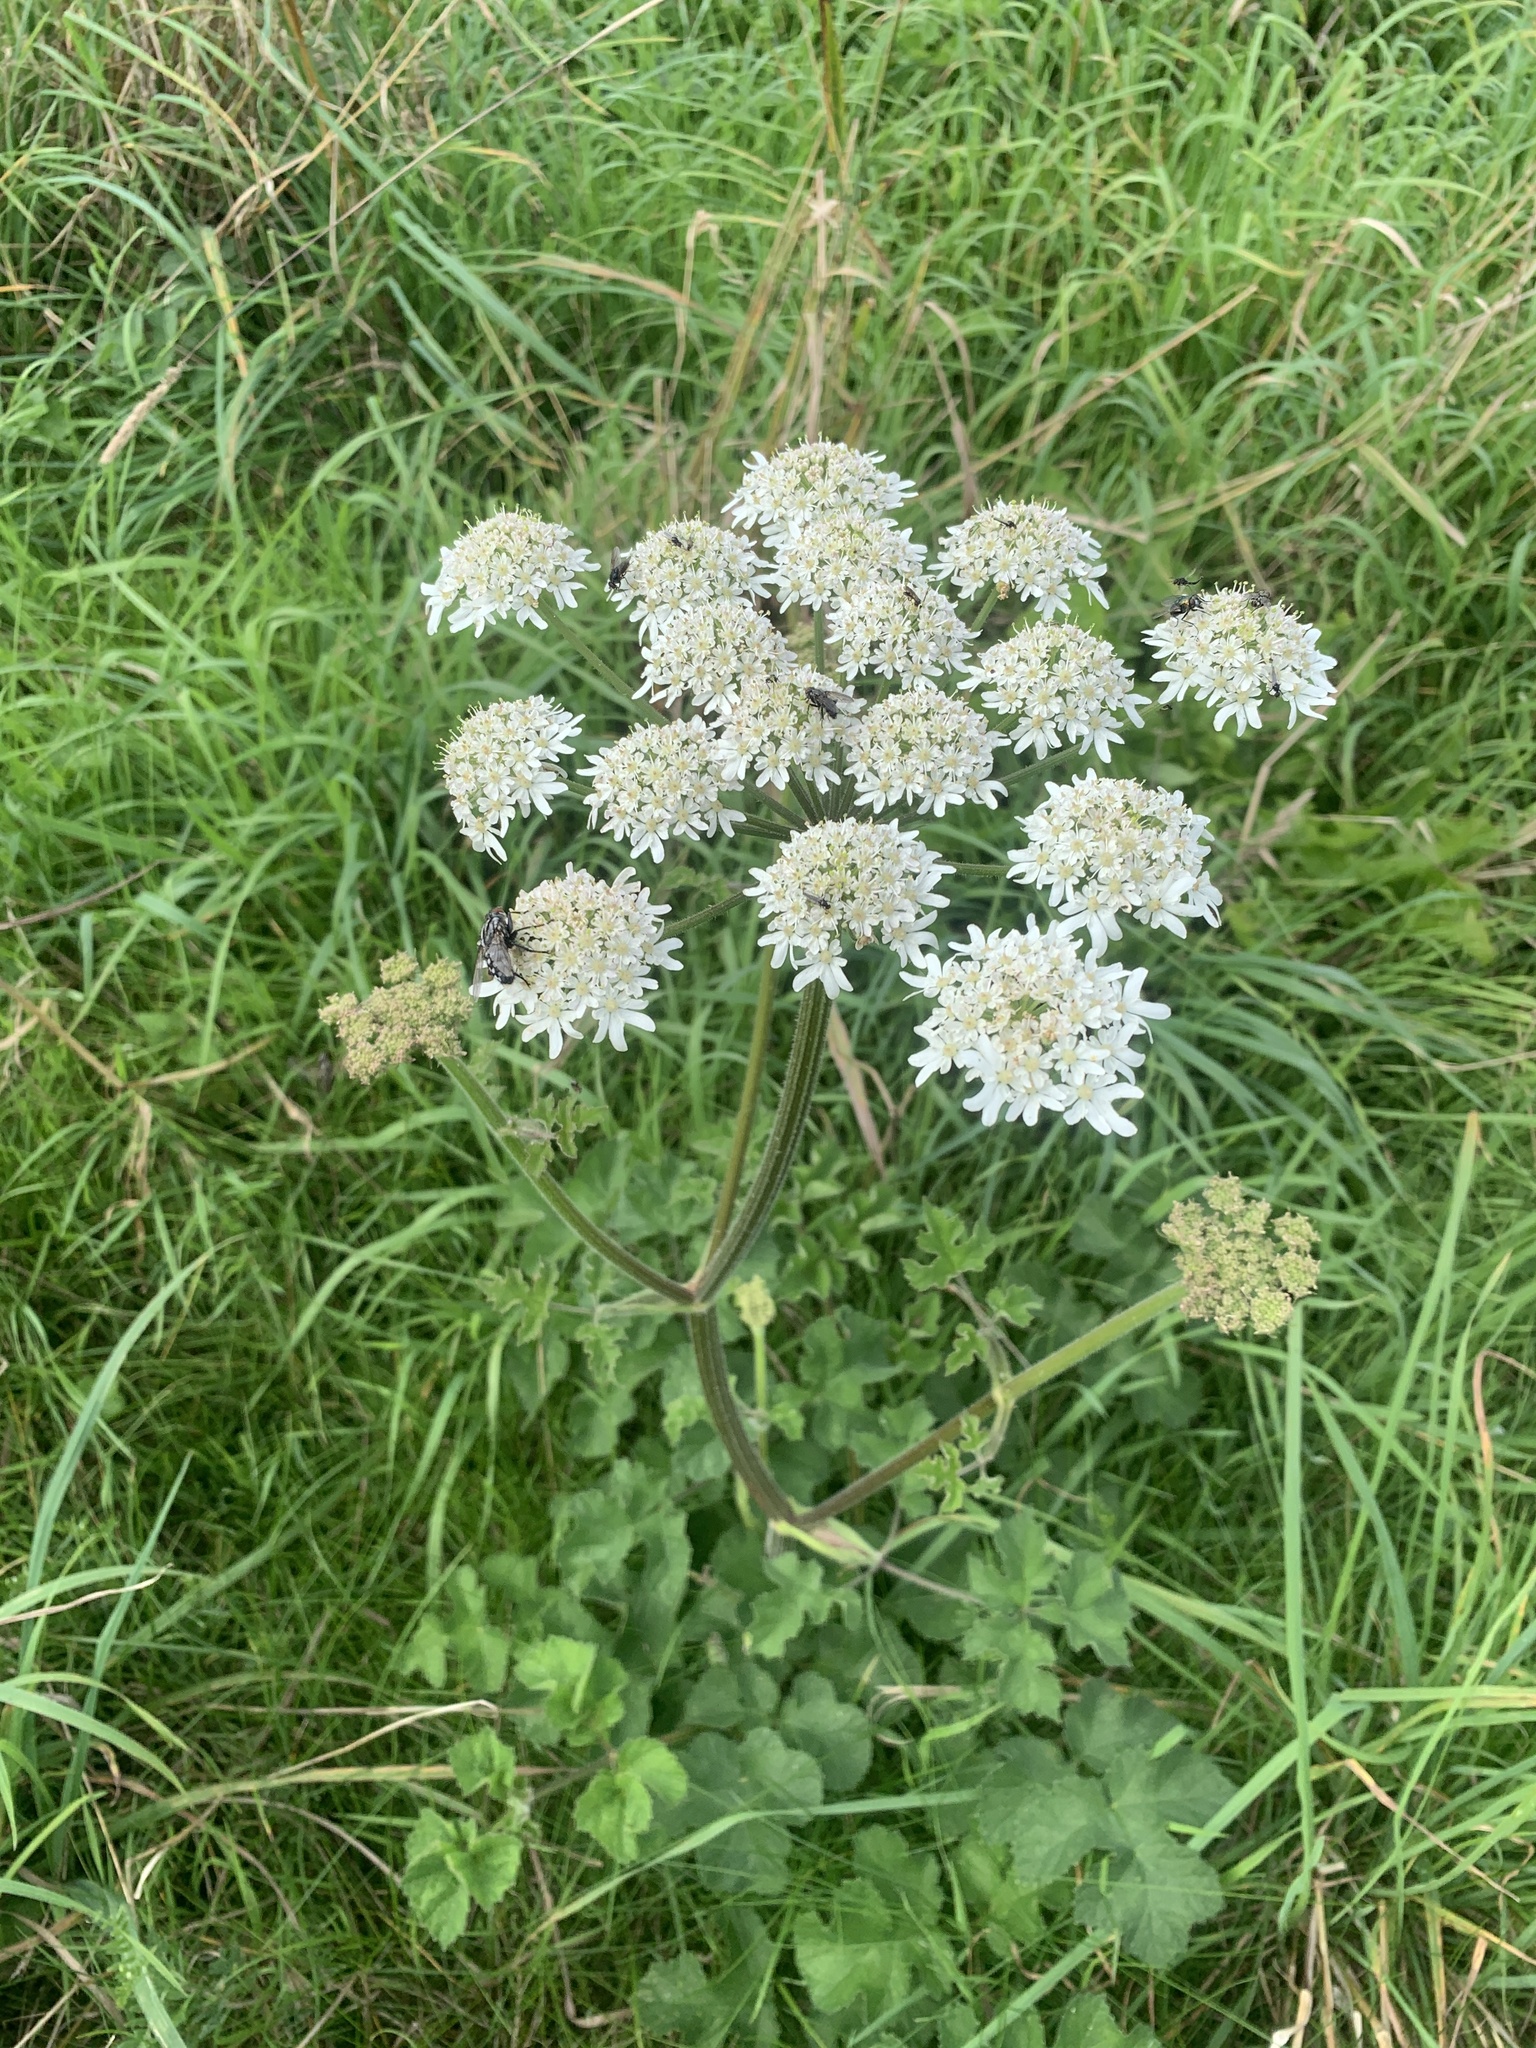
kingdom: Plantae
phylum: Tracheophyta
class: Magnoliopsida
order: Apiales
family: Apiaceae
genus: Heracleum
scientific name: Heracleum sphondylium
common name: Hogweed
